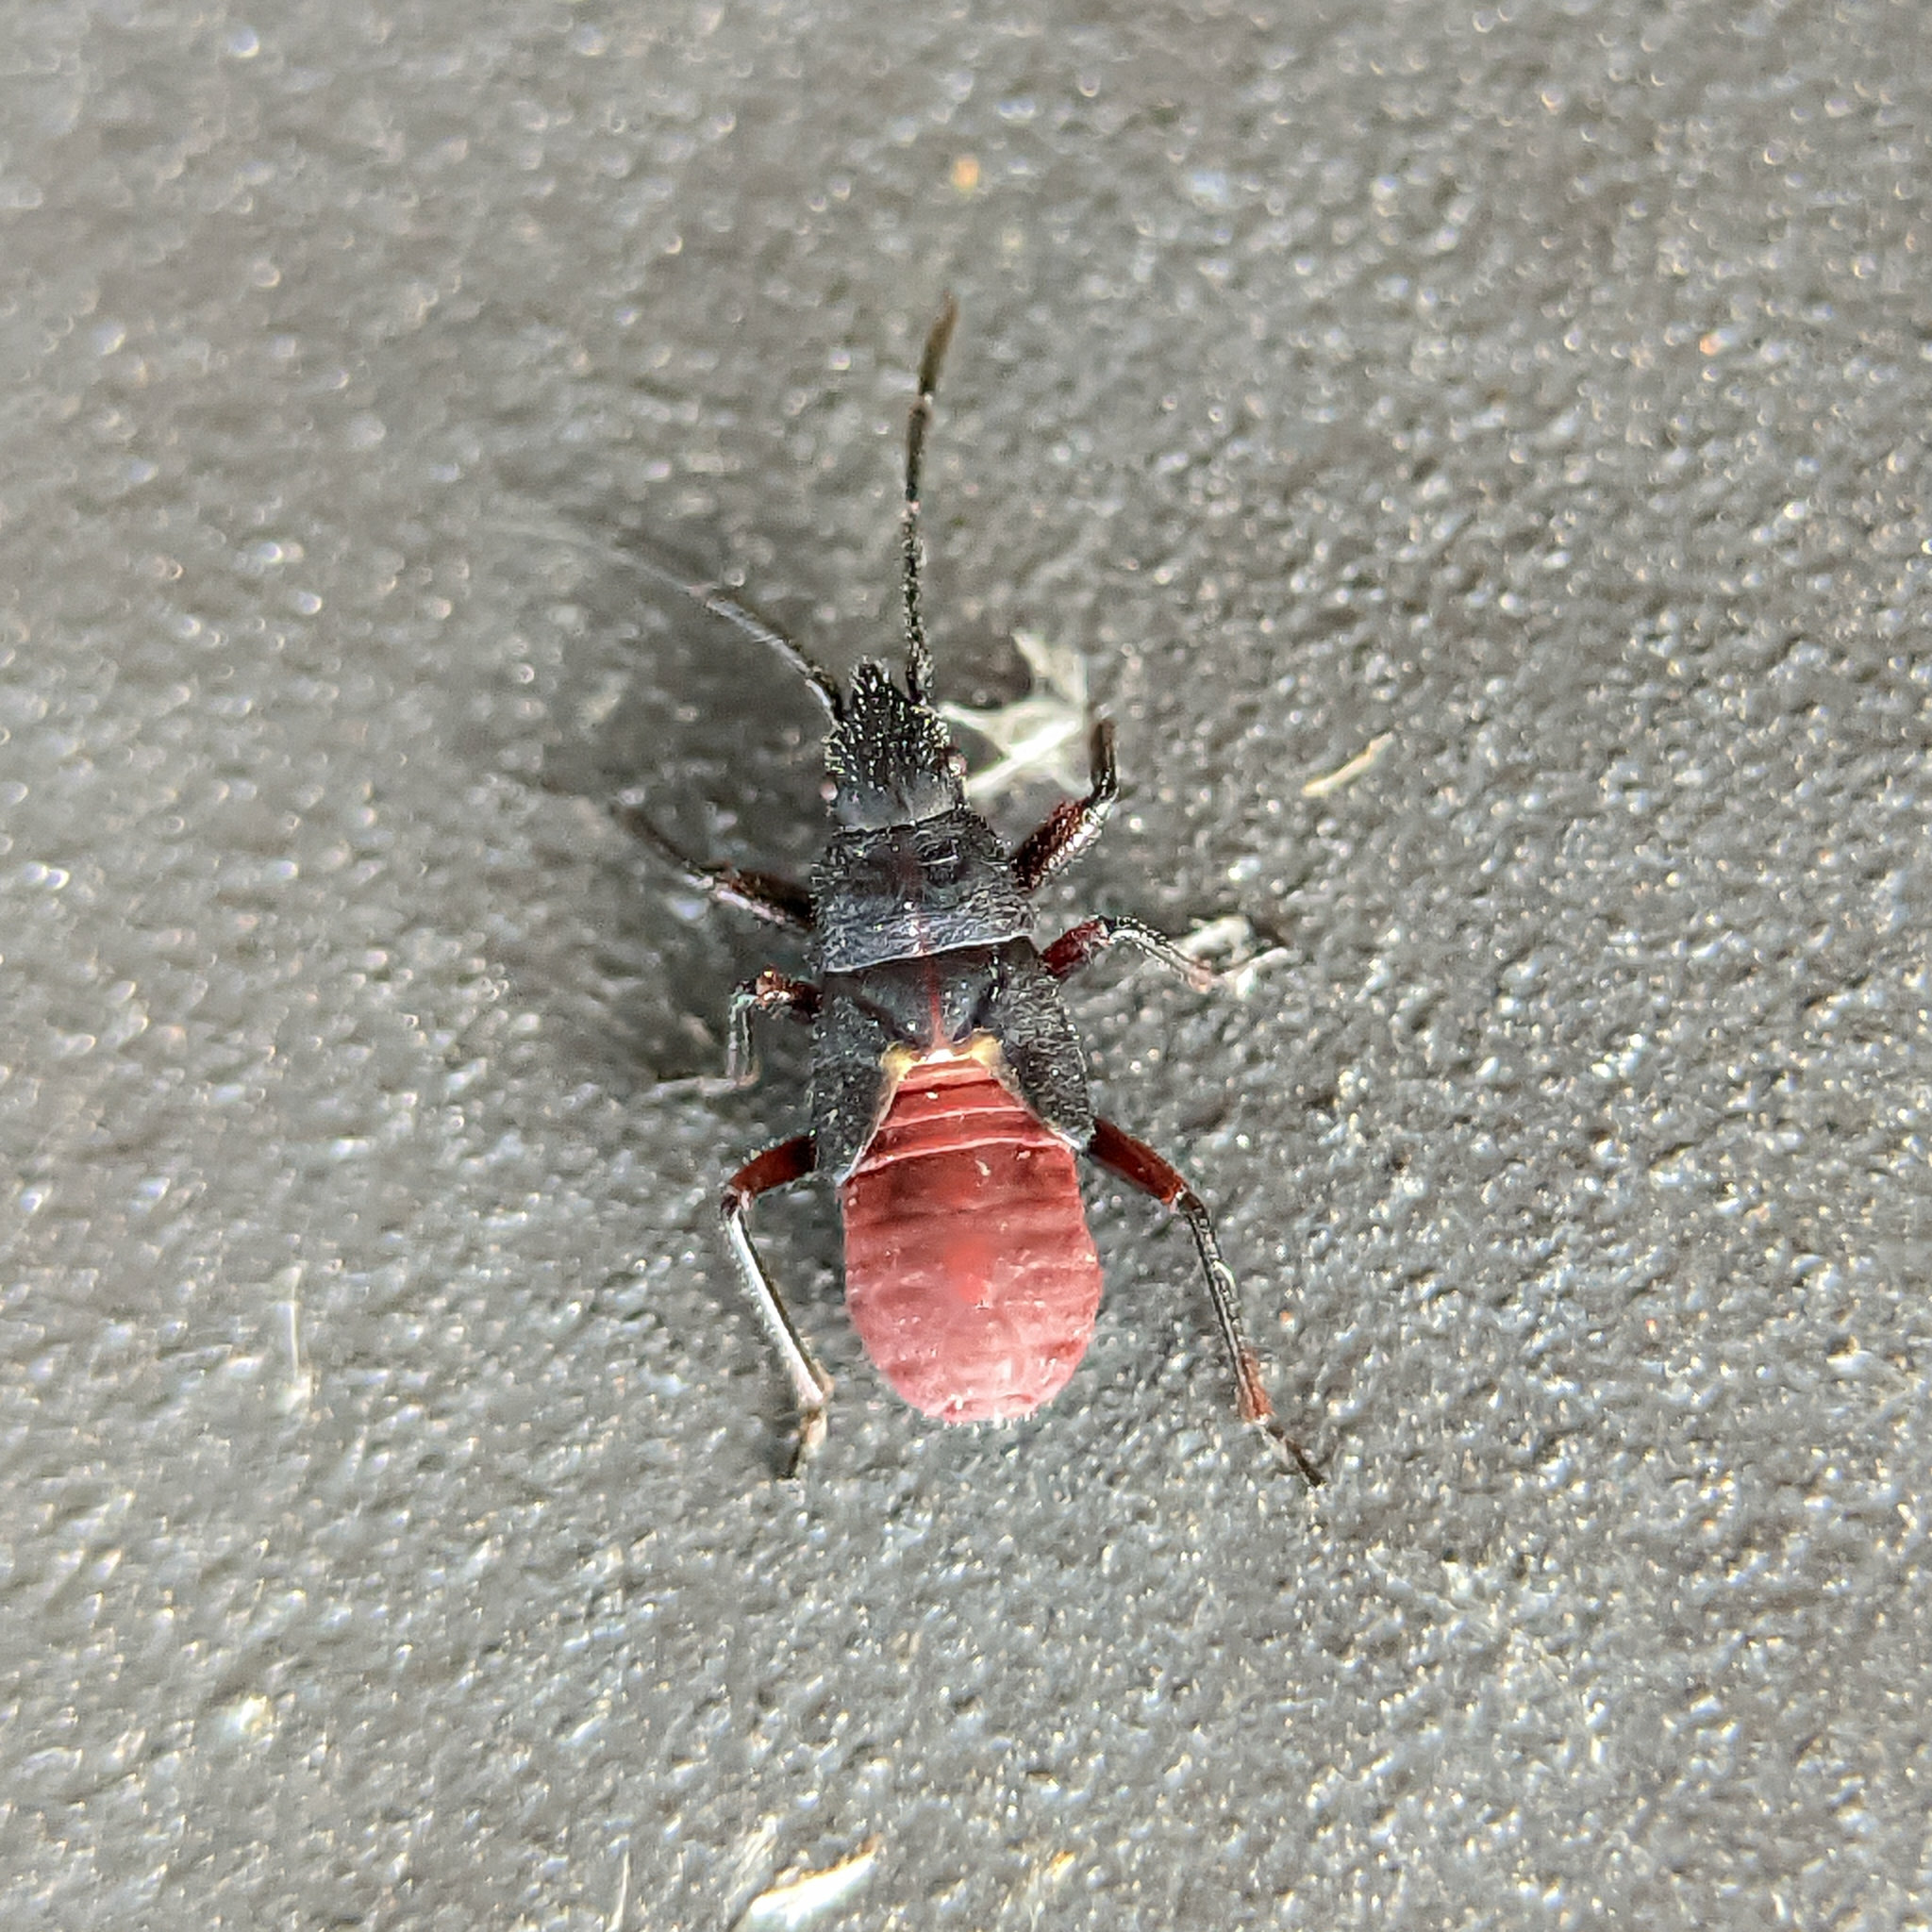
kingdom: Animalia
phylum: Arthropoda
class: Insecta
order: Hemiptera
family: Oxycarenidae
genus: Oxycarenus
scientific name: Oxycarenus lavaterae
